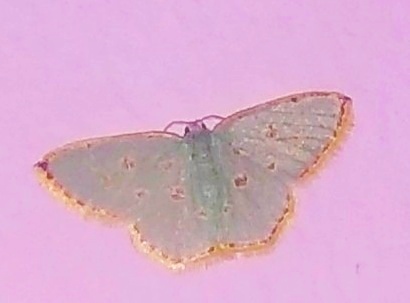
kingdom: Animalia
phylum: Arthropoda
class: Insecta
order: Lepidoptera
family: Geometridae
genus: Comostola
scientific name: Comostola laesaria
